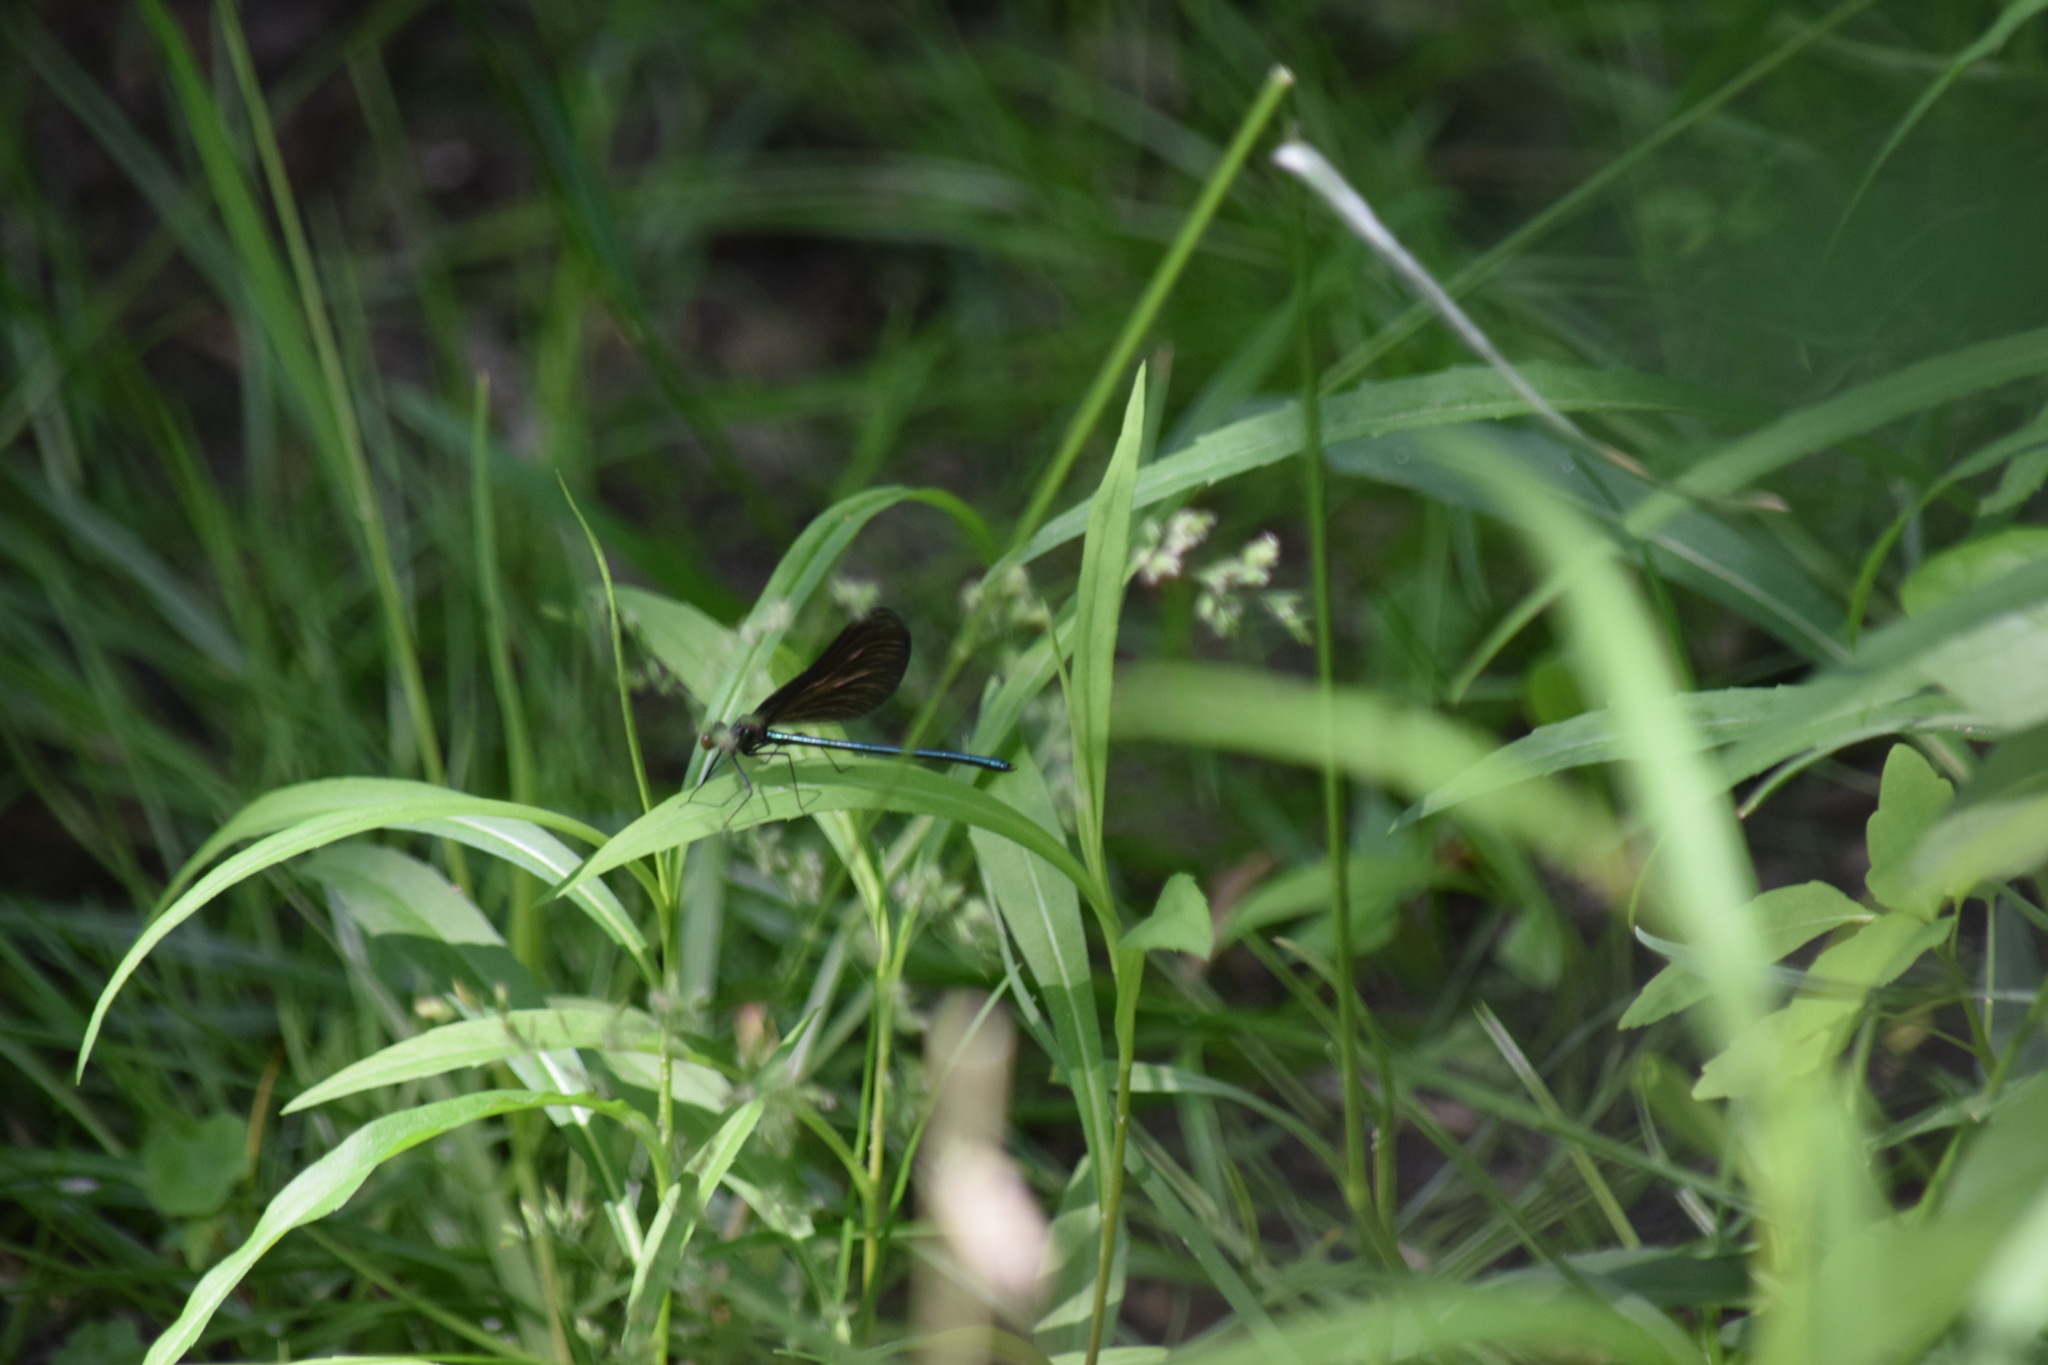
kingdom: Animalia
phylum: Arthropoda
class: Insecta
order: Odonata
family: Calopterygidae
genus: Calopteryx
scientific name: Calopteryx maculata
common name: Ebony jewelwing
